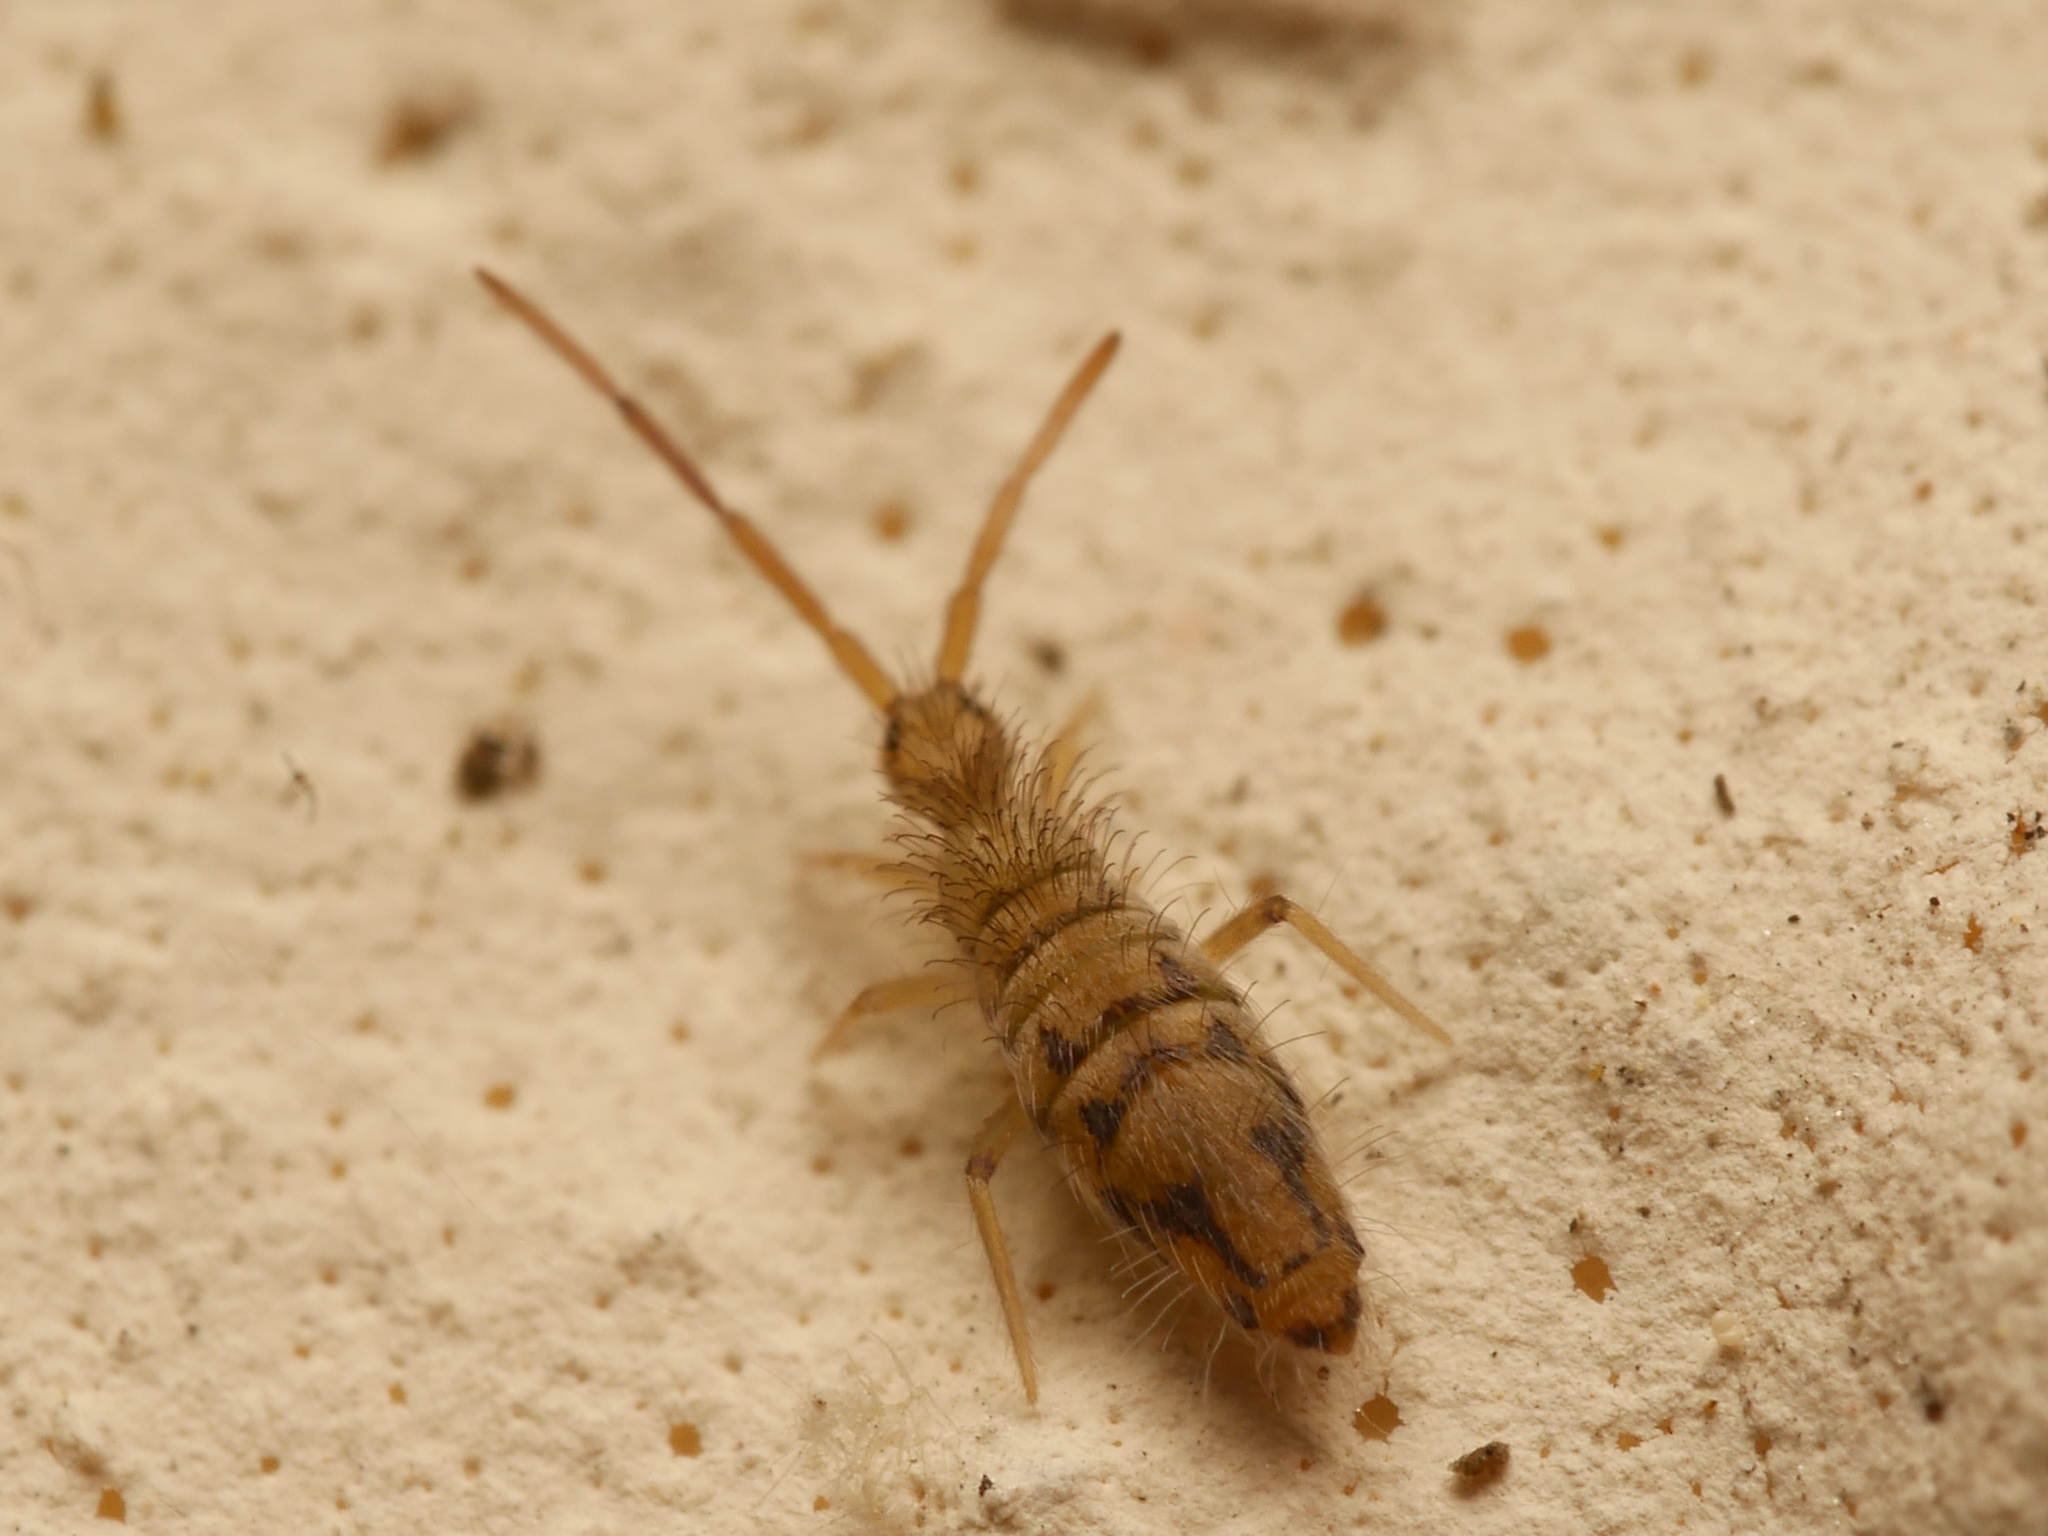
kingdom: Animalia
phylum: Arthropoda
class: Collembola
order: Entomobryomorpha
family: Entomobryidae
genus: Entomobrya
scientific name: Entomobrya nivalis
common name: Cosmopolitan springtail
